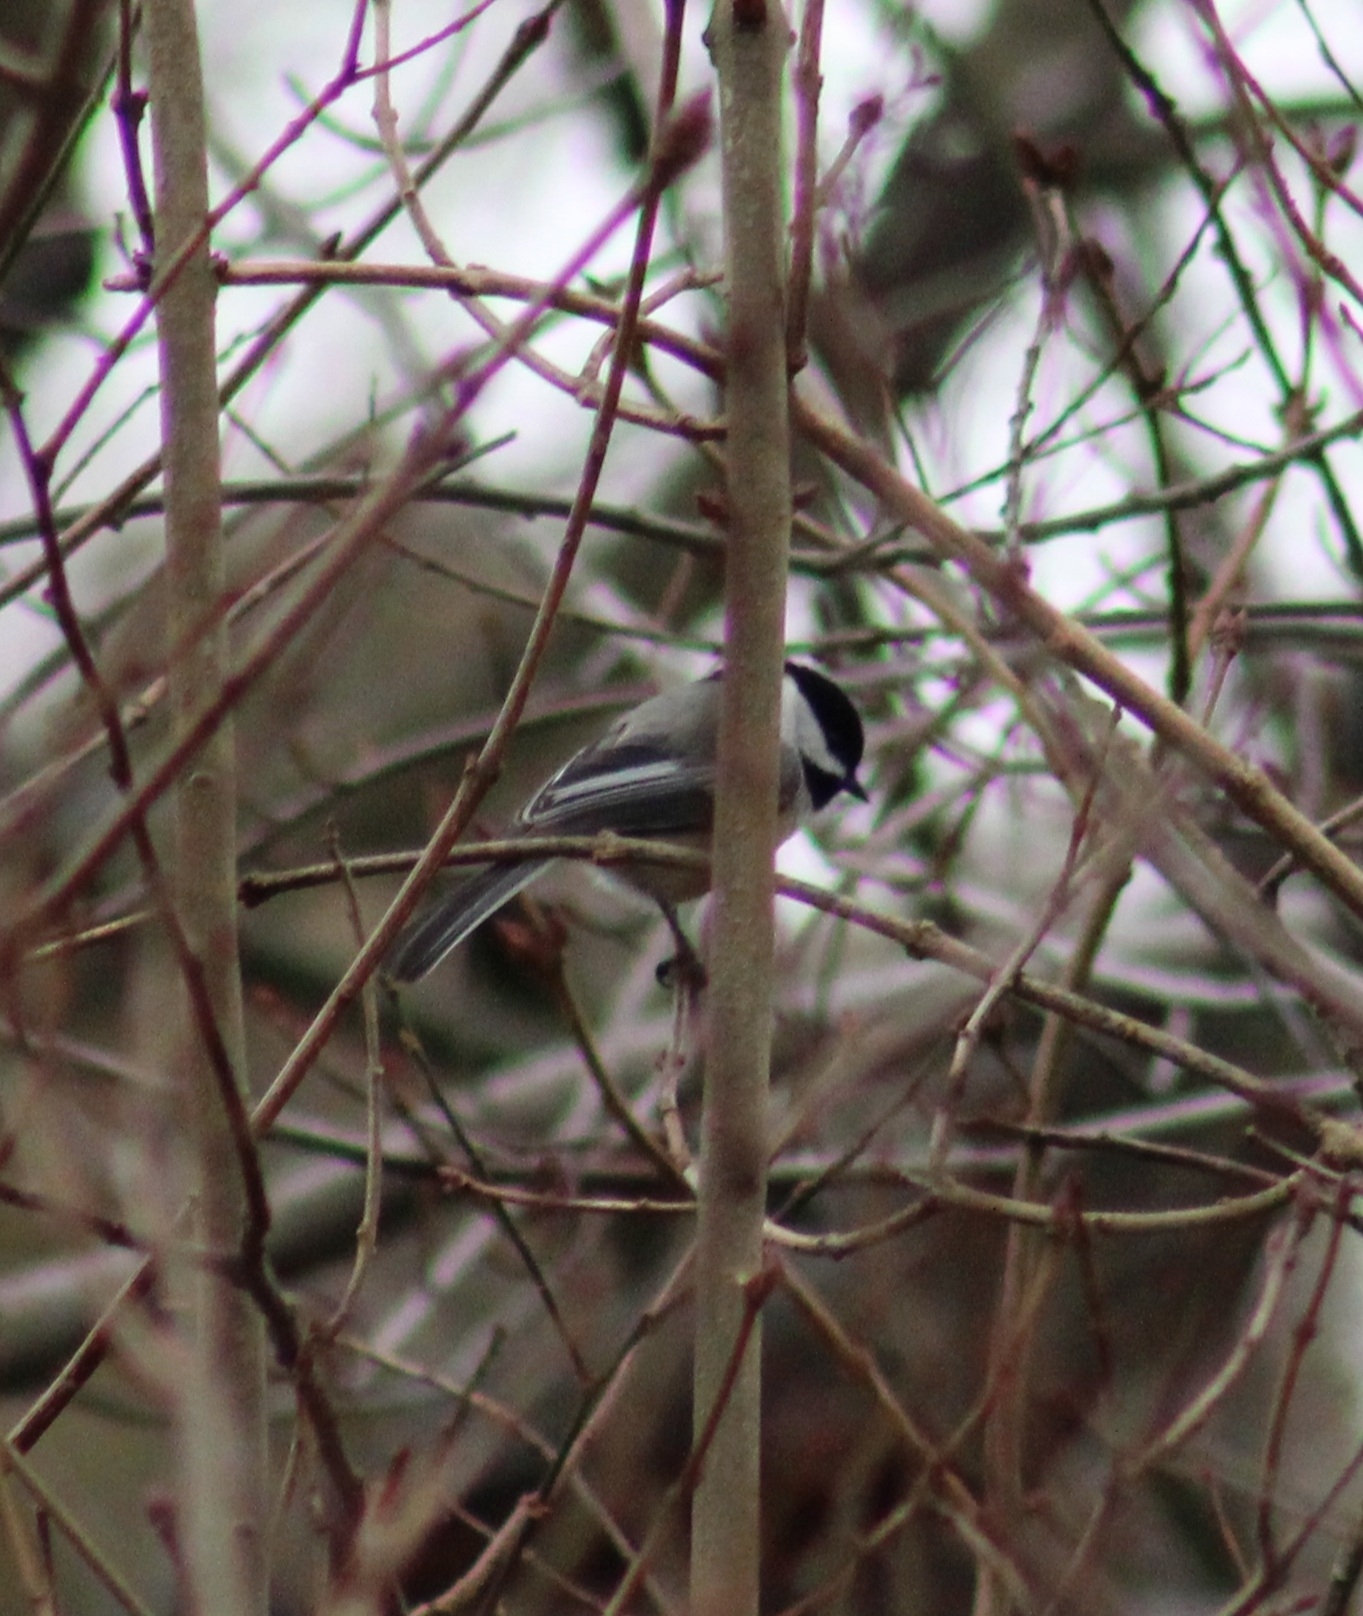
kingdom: Animalia
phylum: Chordata
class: Aves
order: Passeriformes
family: Paridae
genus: Poecile
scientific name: Poecile atricapillus
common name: Black-capped chickadee
